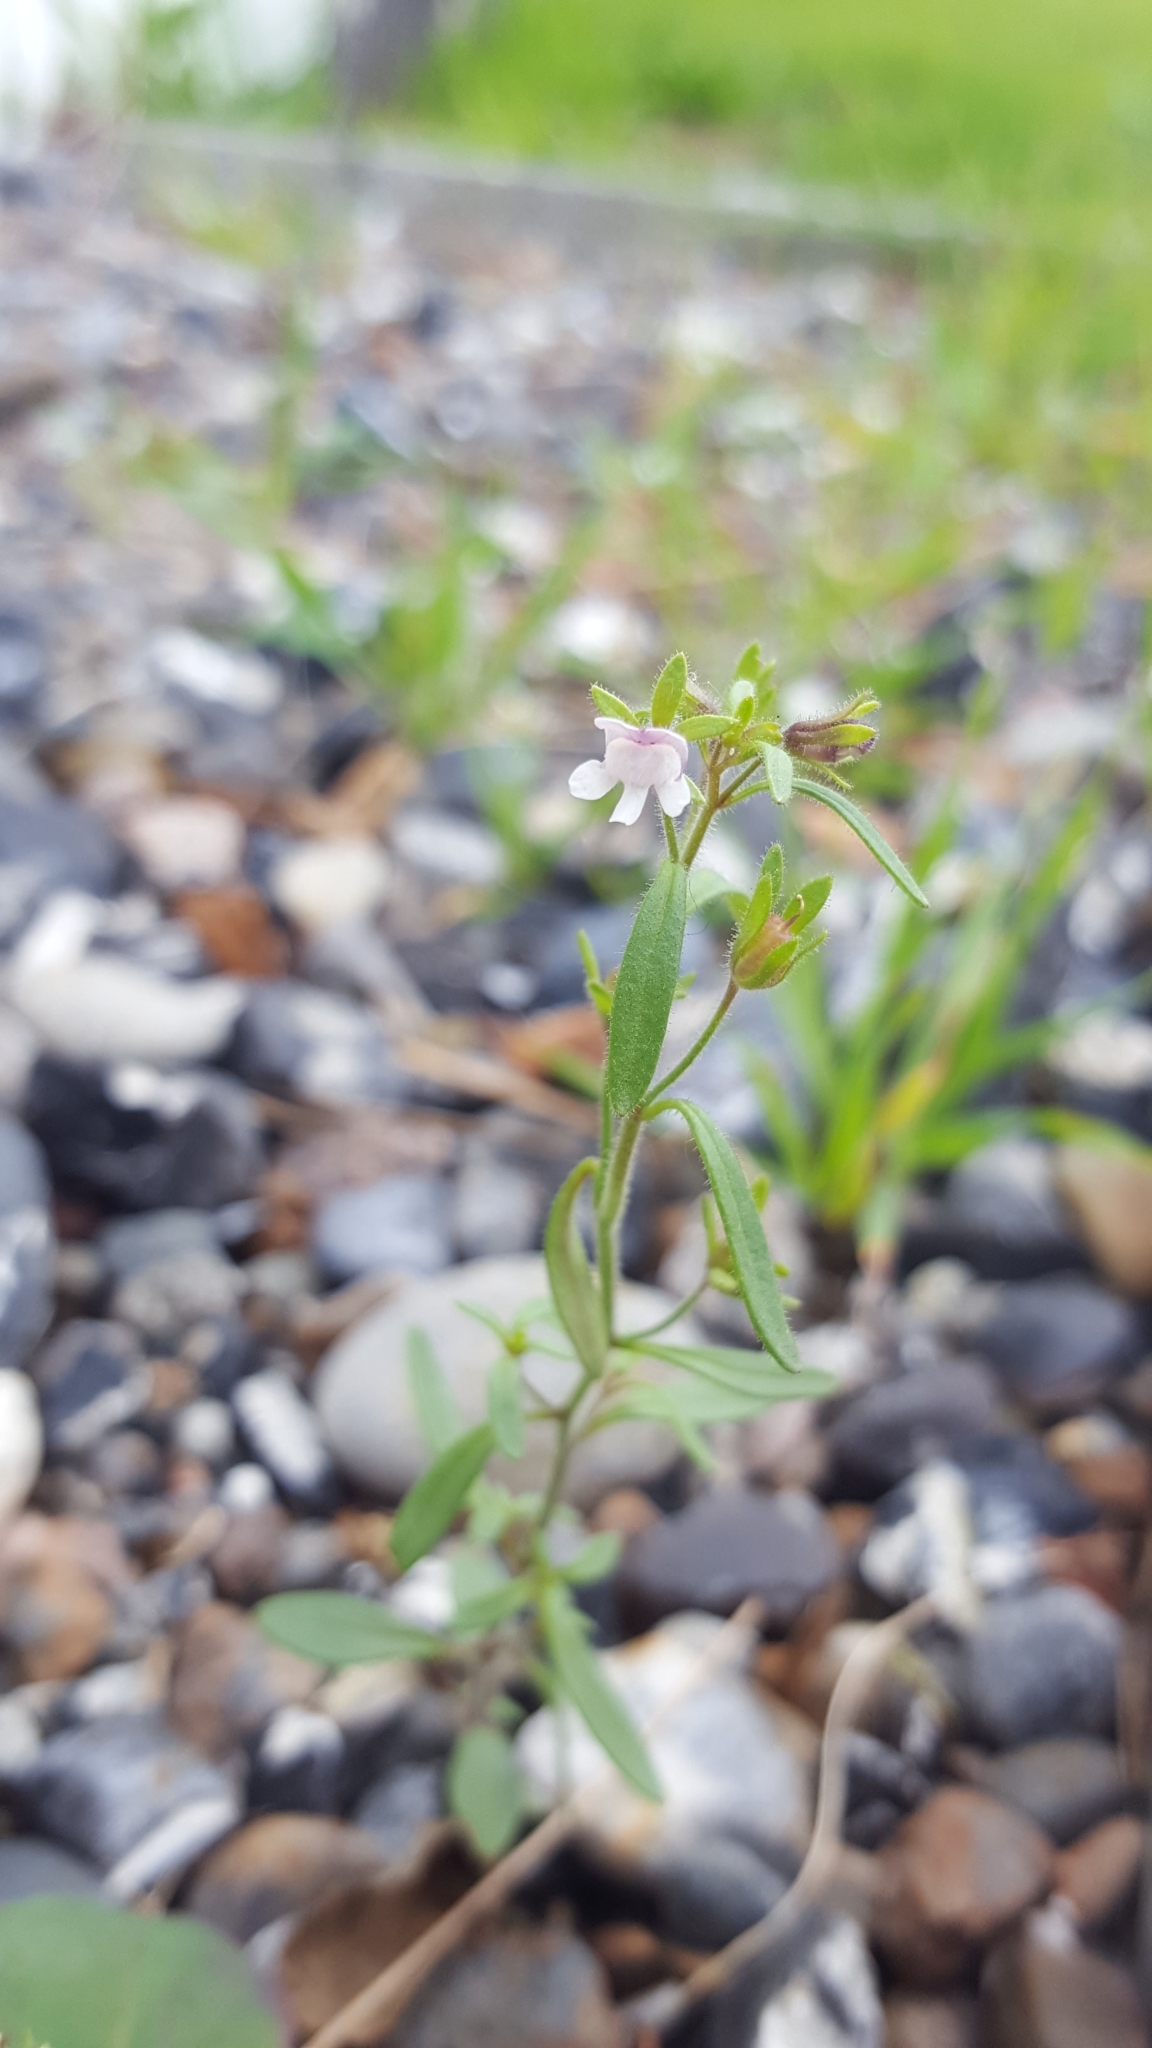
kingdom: Plantae
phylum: Tracheophyta
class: Magnoliopsida
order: Lamiales
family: Plantaginaceae
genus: Chaenorhinum
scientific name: Chaenorhinum minus
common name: Dwarf snapdragon
